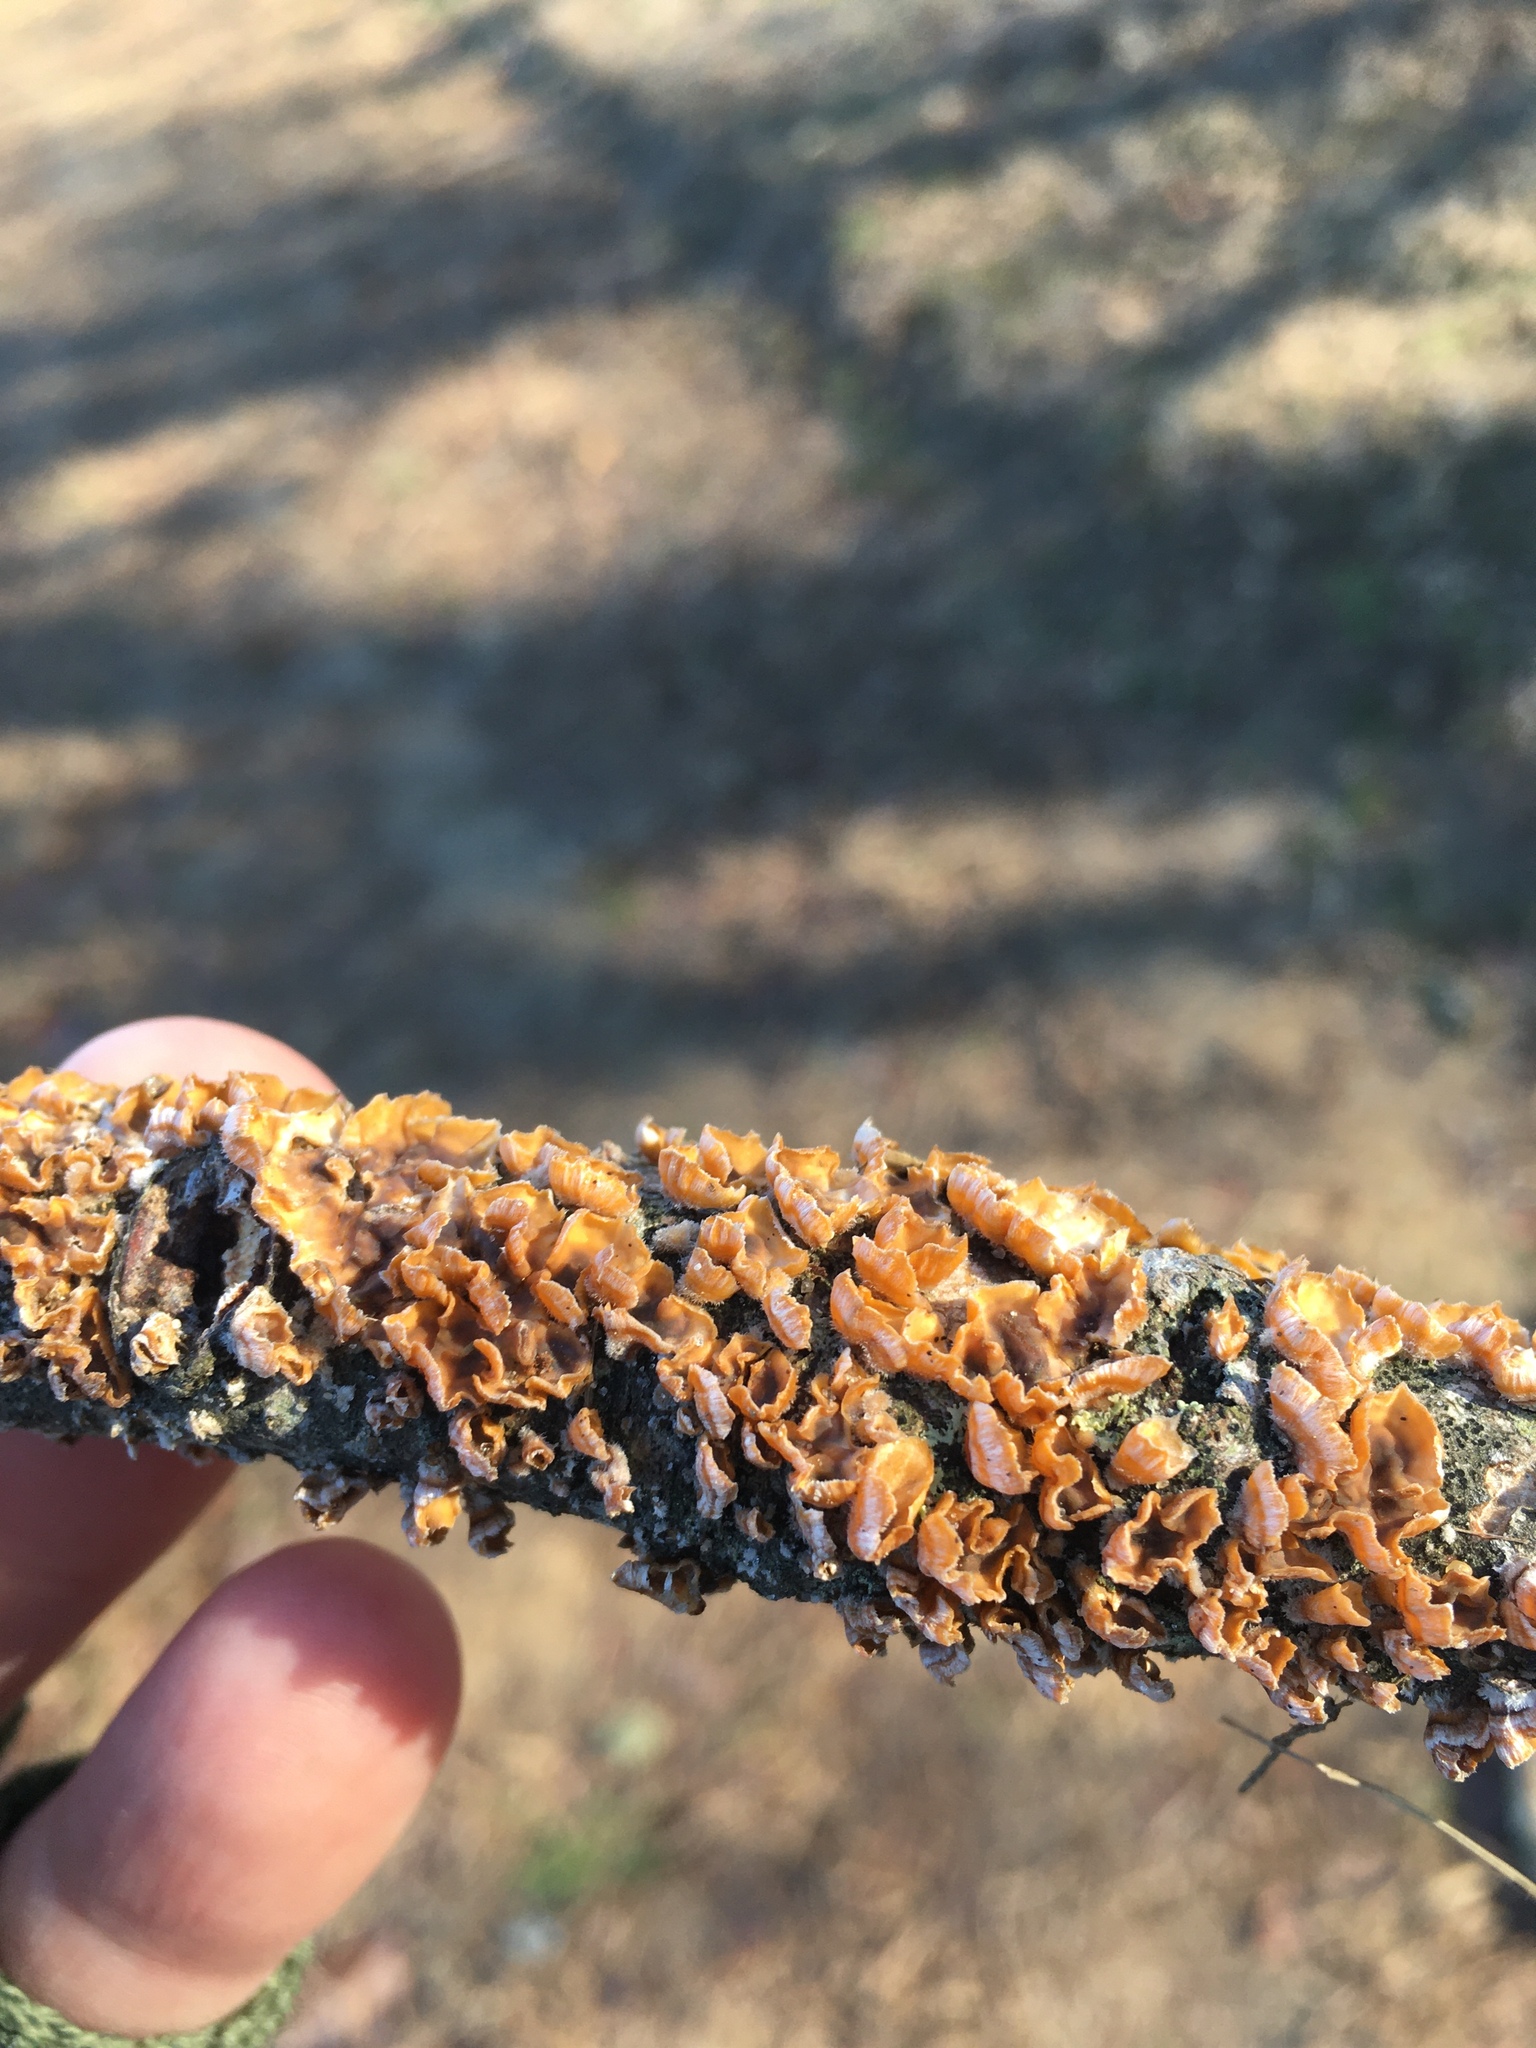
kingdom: Fungi
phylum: Basidiomycota
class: Agaricomycetes
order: Russulales
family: Stereaceae
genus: Stereum
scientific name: Stereum complicatum
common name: Crowded parchment
